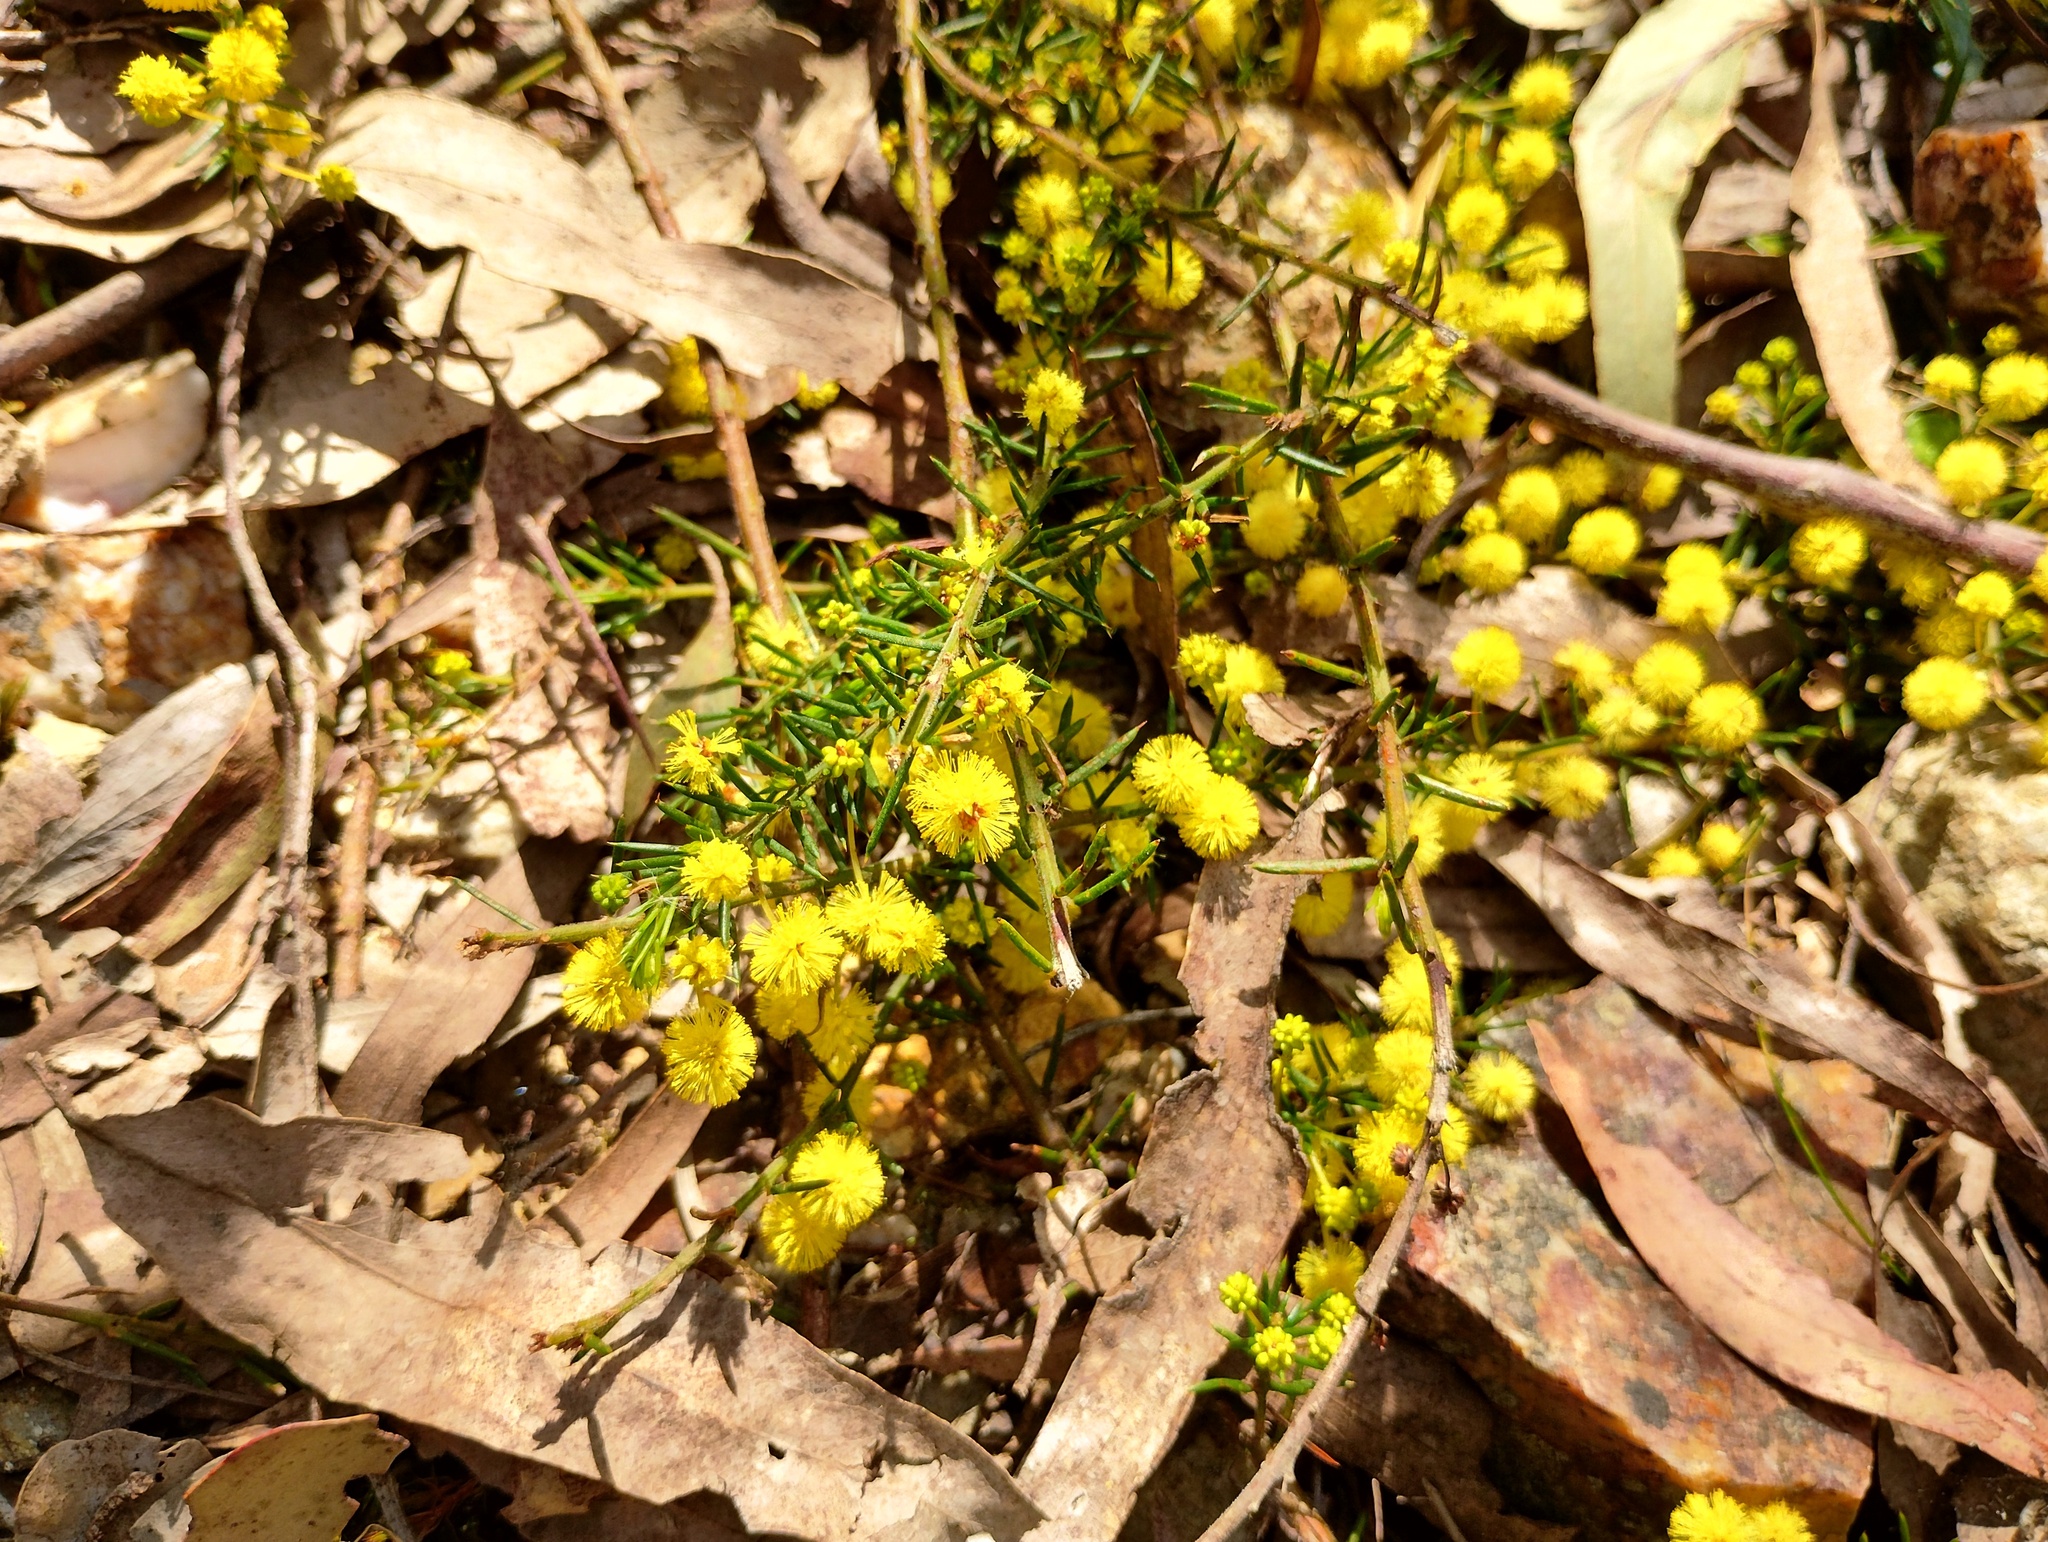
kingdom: Plantae
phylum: Tracheophyta
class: Magnoliopsida
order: Fabales
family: Fabaceae
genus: Acacia
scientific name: Acacia aculeatissima
